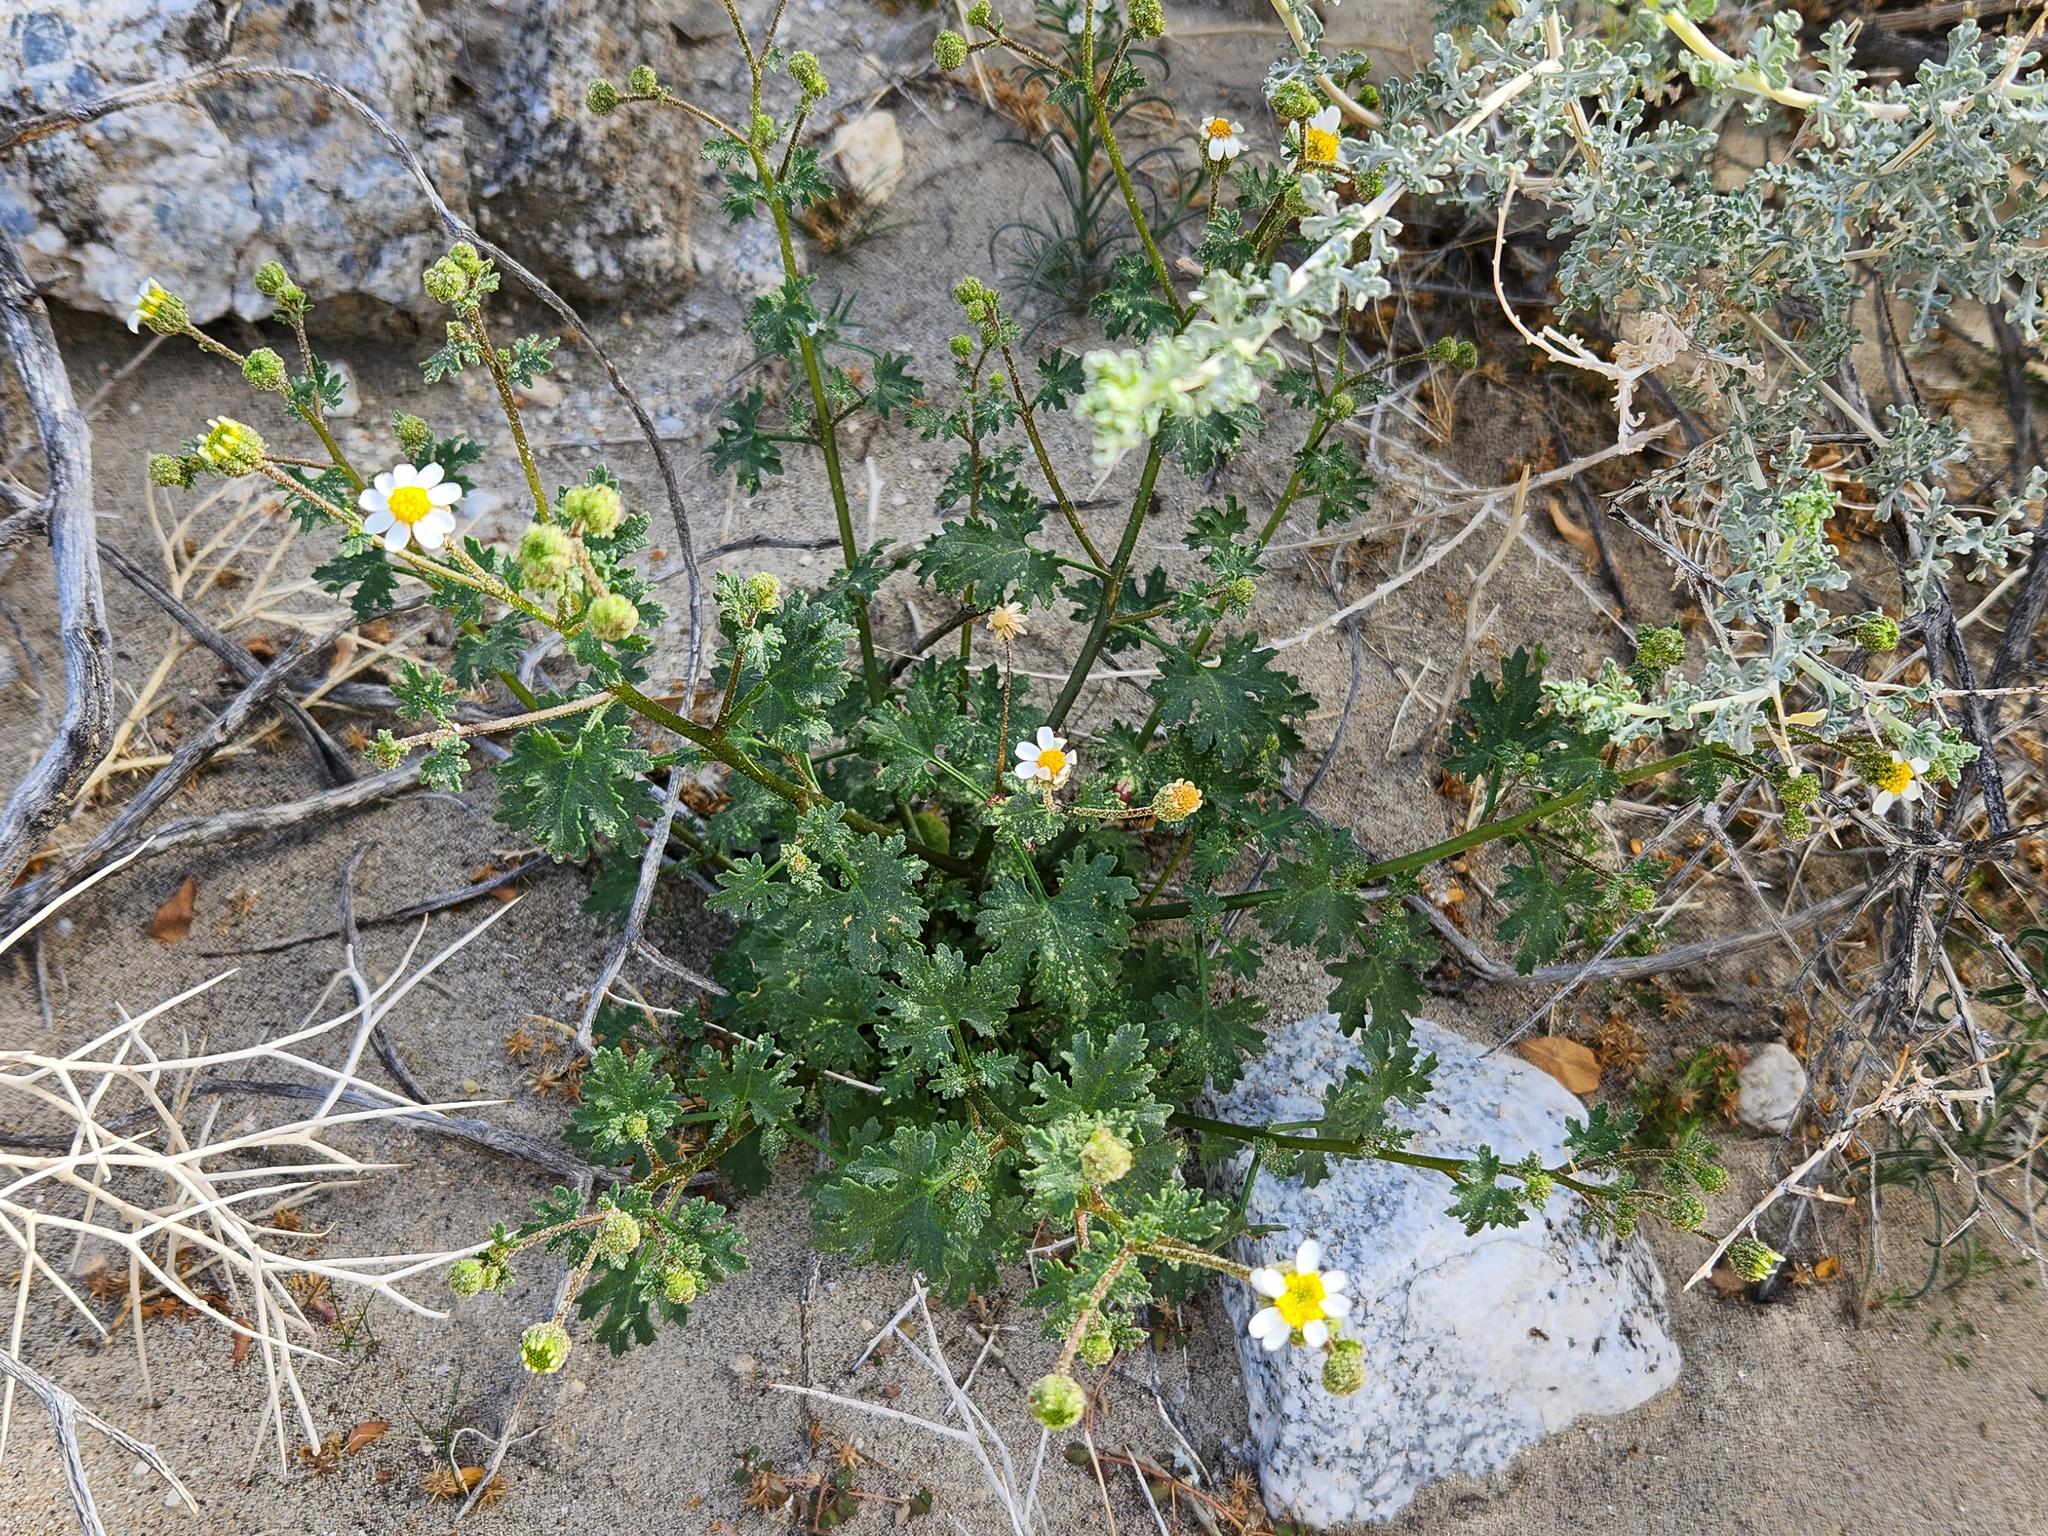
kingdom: Plantae
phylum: Tracheophyta
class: Magnoliopsida
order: Asterales
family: Asteraceae
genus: Laphamia
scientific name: Laphamia emoryi
